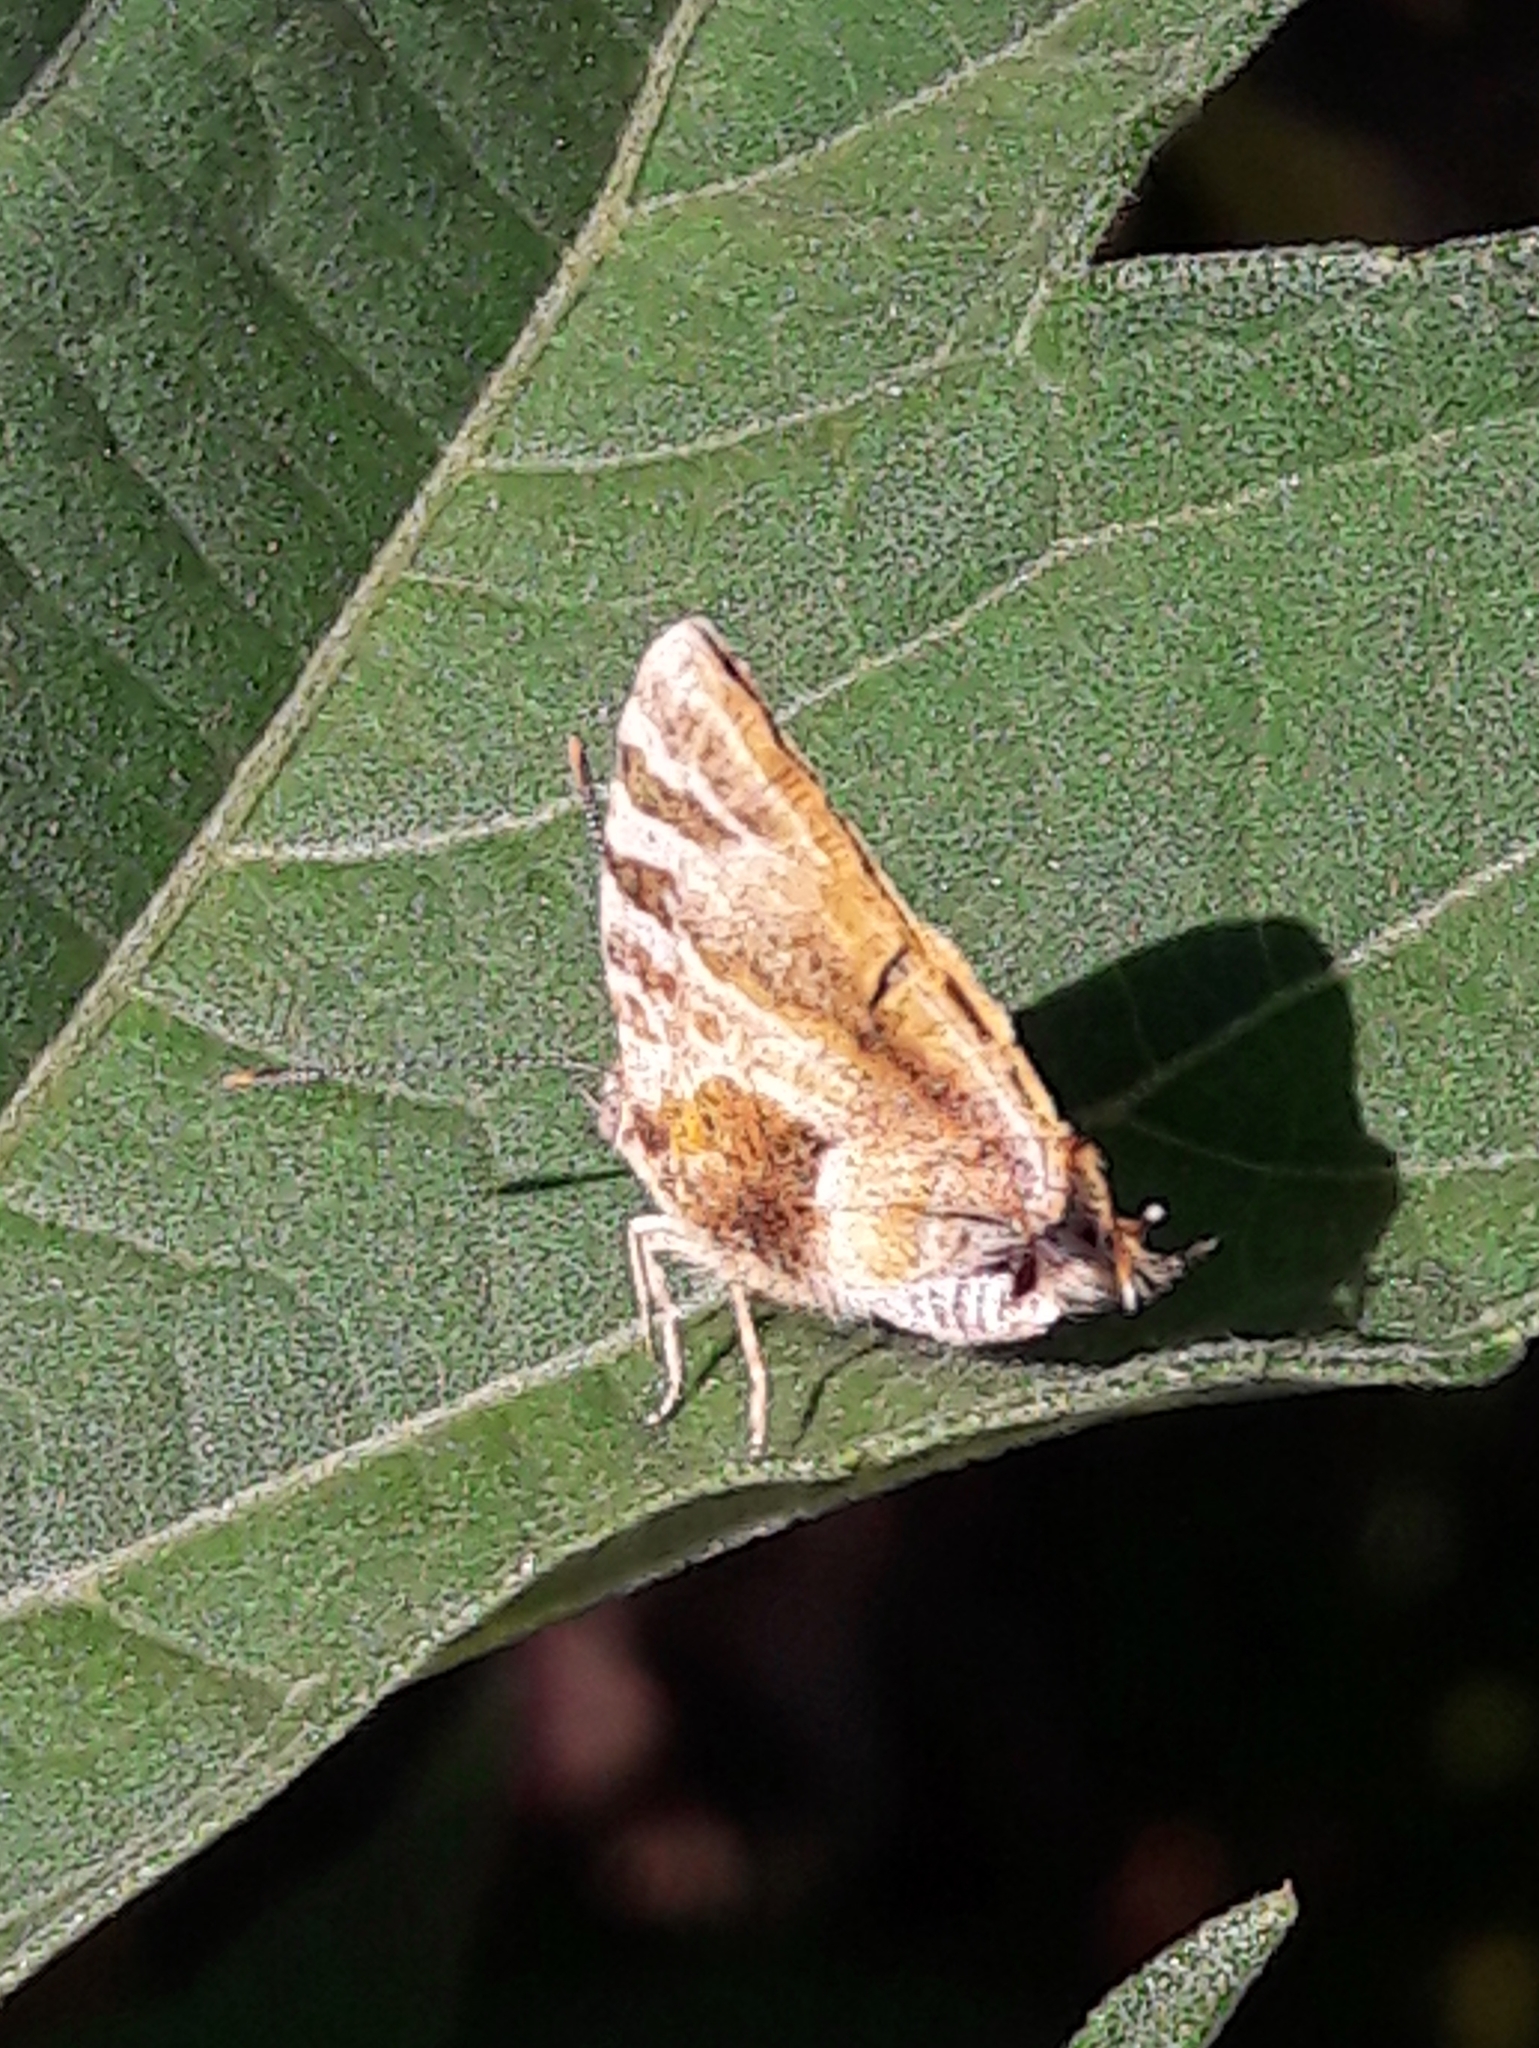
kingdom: Animalia
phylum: Arthropoda
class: Insecta
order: Lepidoptera
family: Lycaenidae
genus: Arawacus
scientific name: Arawacus ellida
